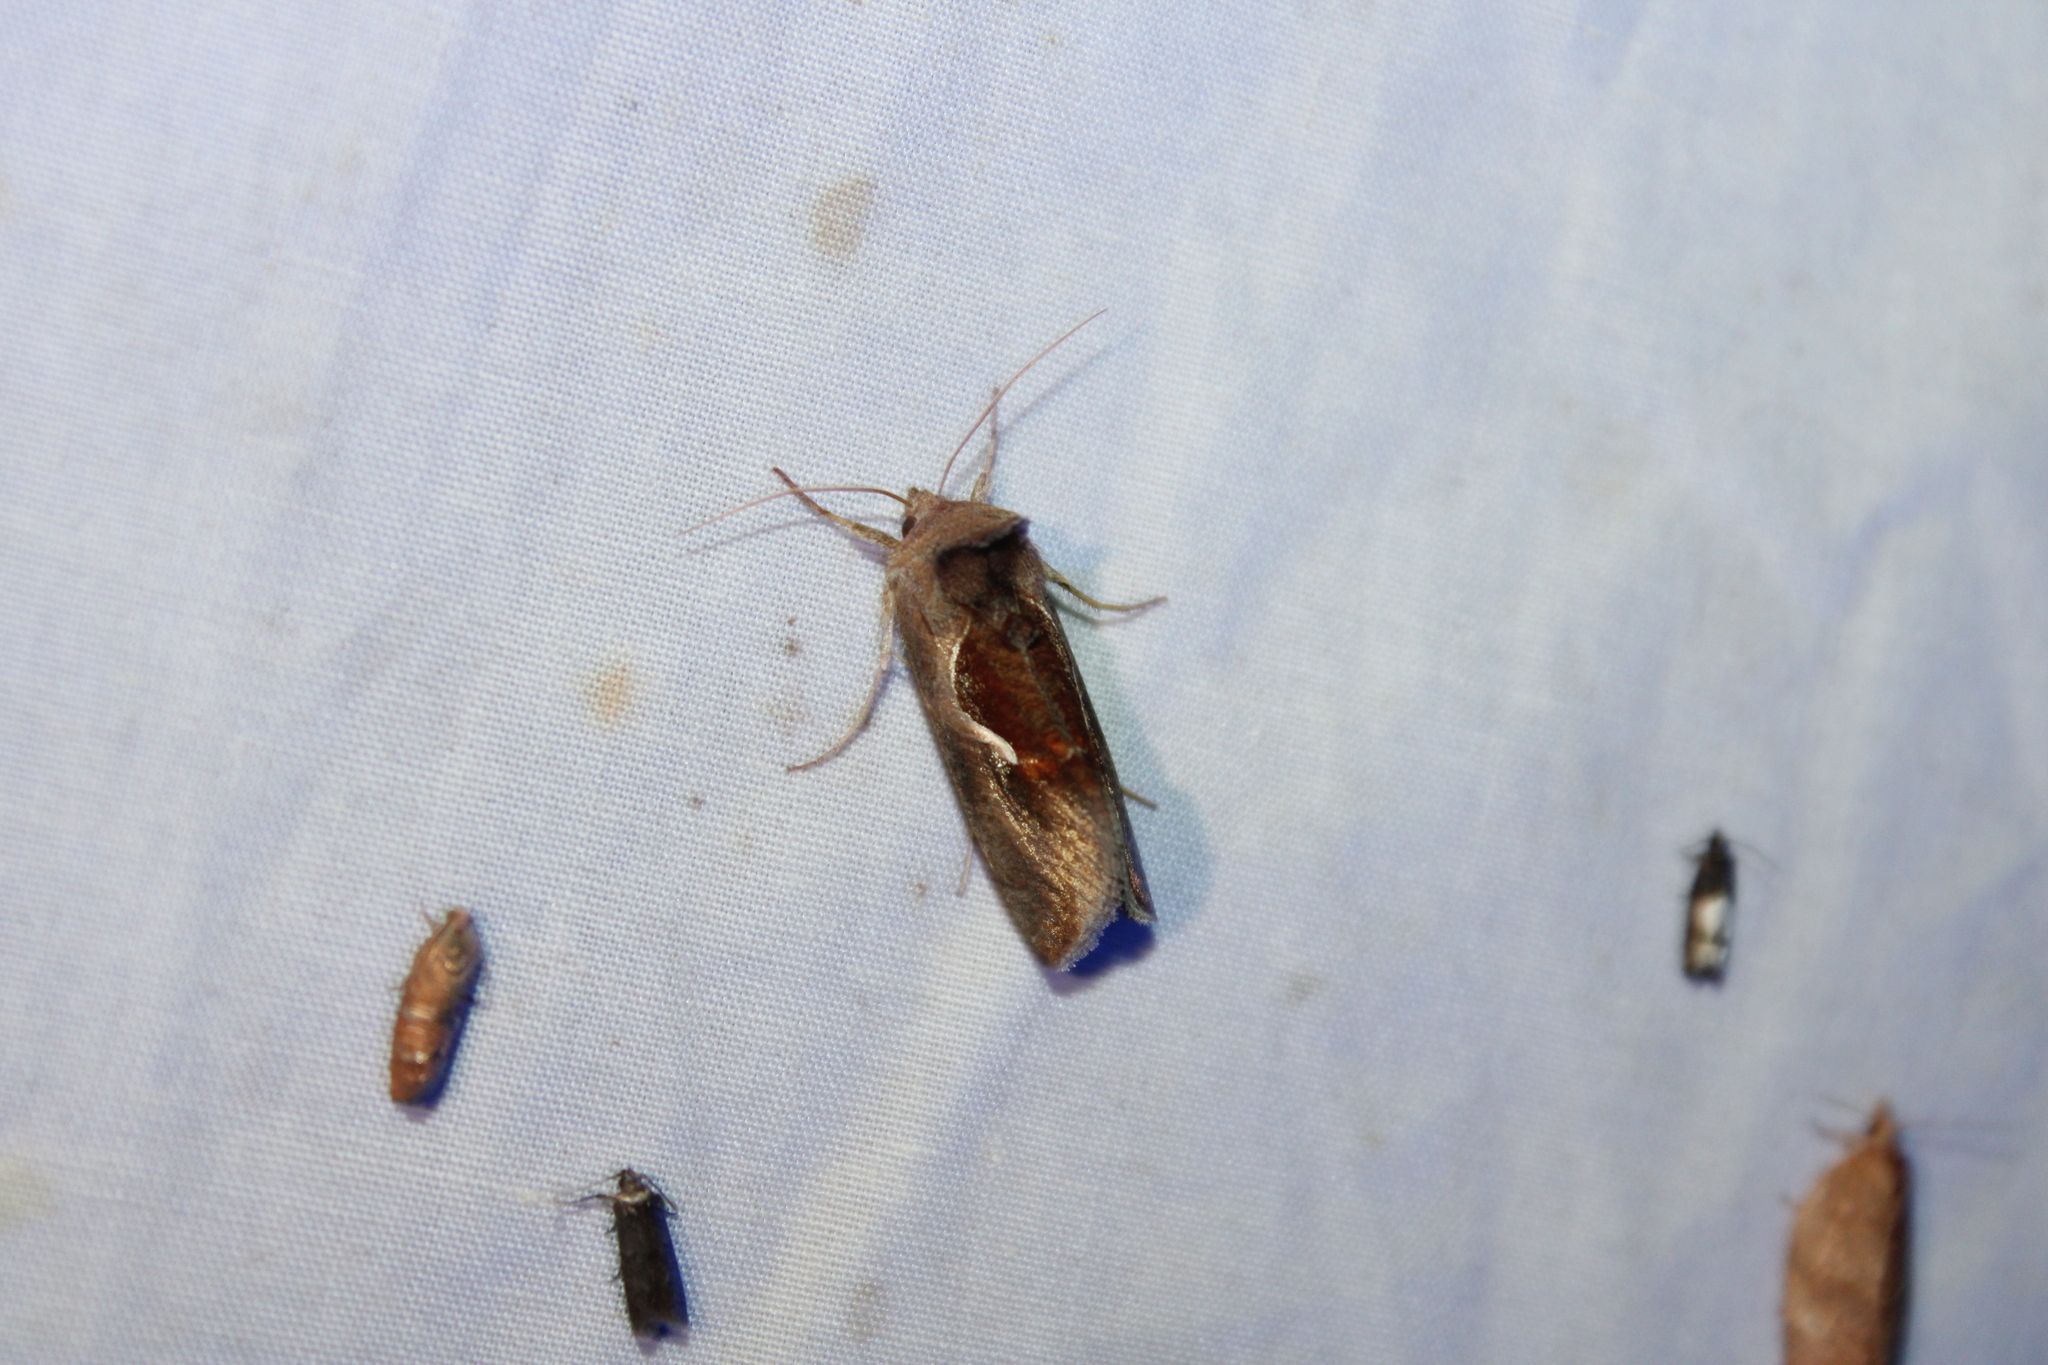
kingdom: Animalia
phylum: Arthropoda
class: Insecta
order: Lepidoptera
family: Noctuidae
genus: Anagrapha
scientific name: Anagrapha falcifera
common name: Celery looper
